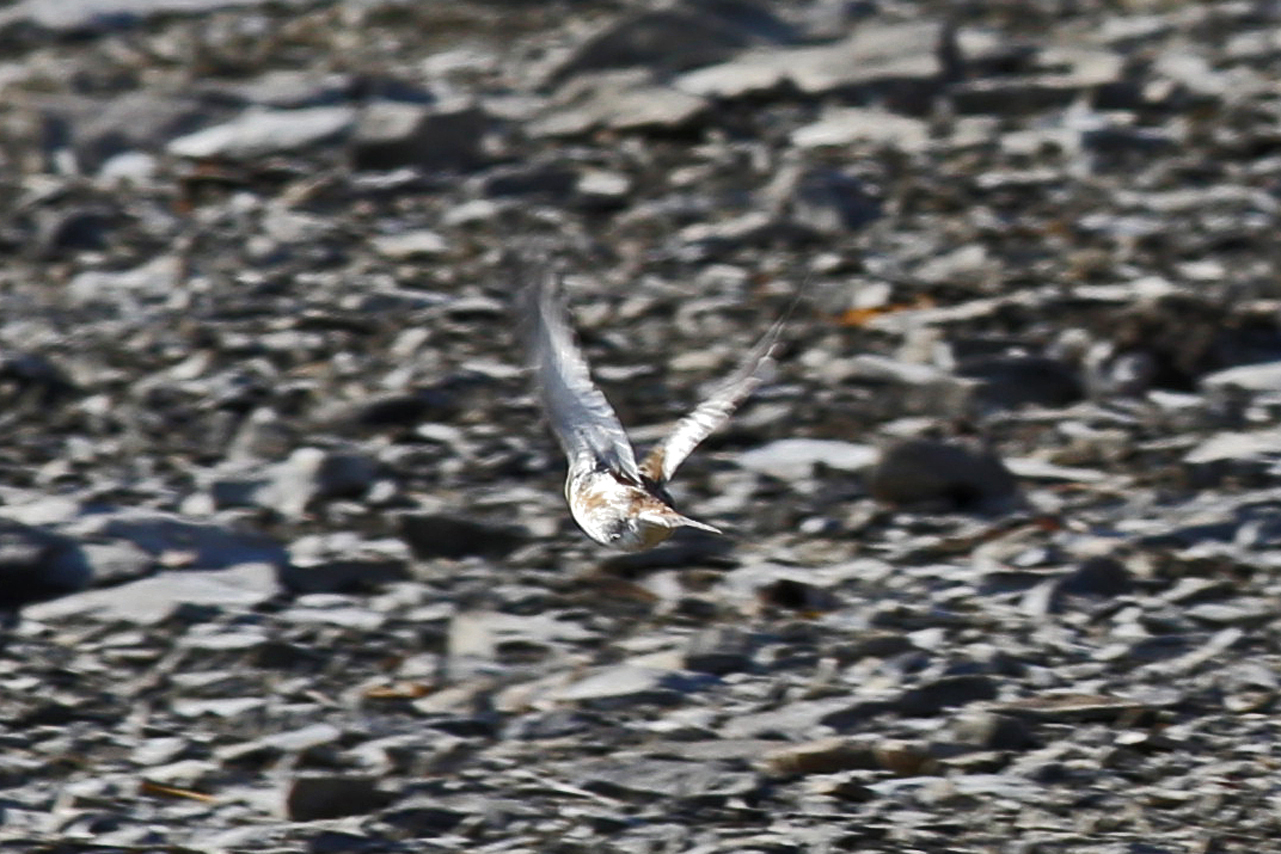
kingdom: Animalia
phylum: Chordata
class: Aves
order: Passeriformes
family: Calcariidae
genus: Plectrophenax
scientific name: Plectrophenax nivalis
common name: Snow bunting
